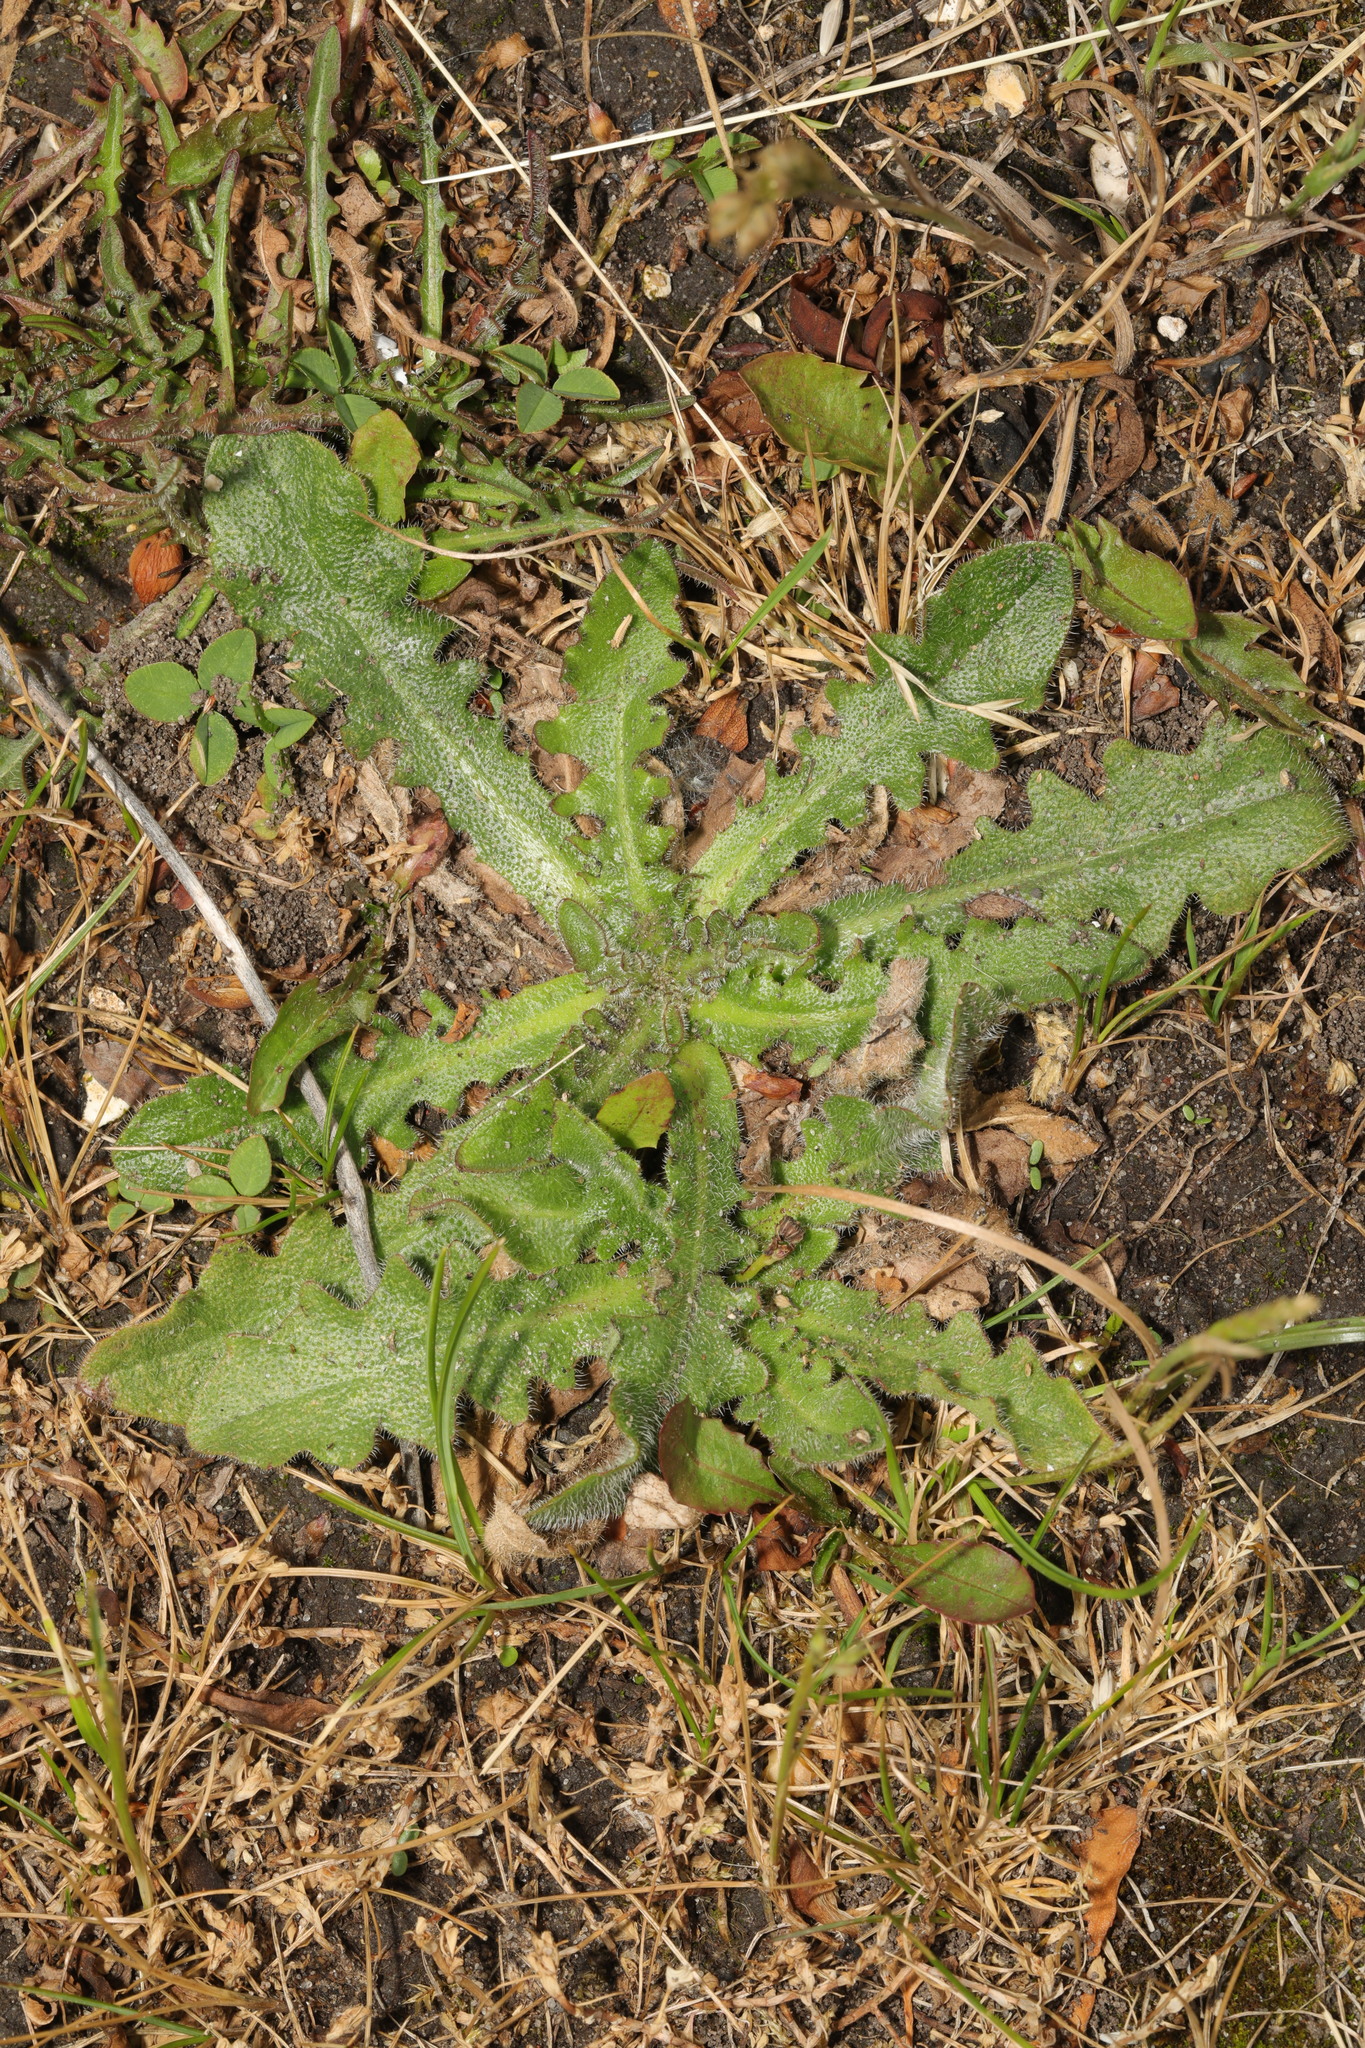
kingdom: Plantae
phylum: Tracheophyta
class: Magnoliopsida
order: Asterales
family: Asteraceae
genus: Hypochaeris
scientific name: Hypochaeris radicata
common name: Flatweed
